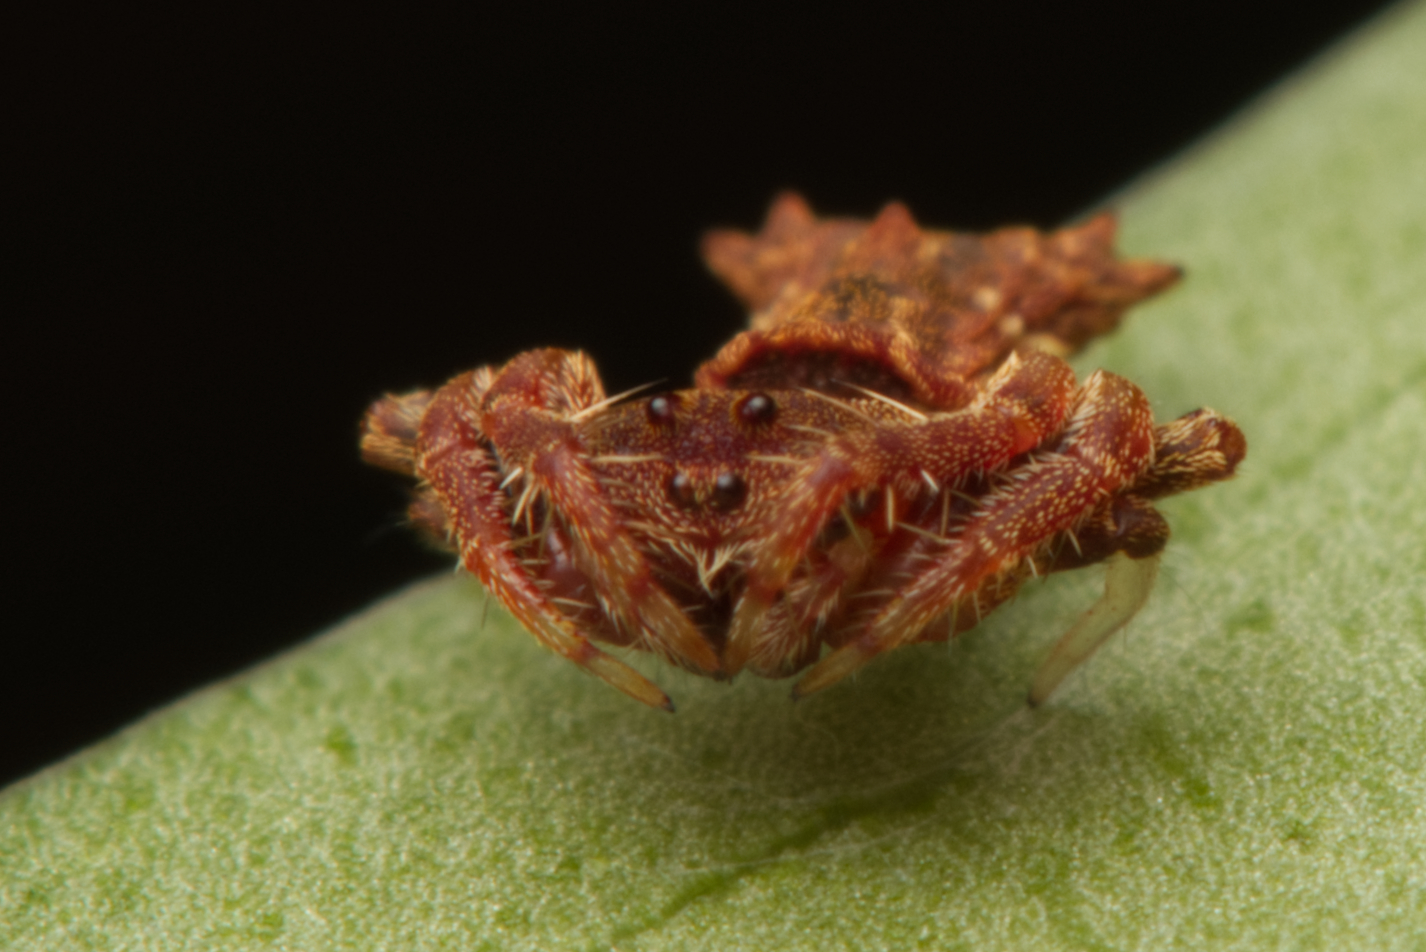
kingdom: Animalia
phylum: Arthropoda
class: Arachnida
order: Araneae
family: Arkyidae
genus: Arkys
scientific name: Arkys dilatatus
